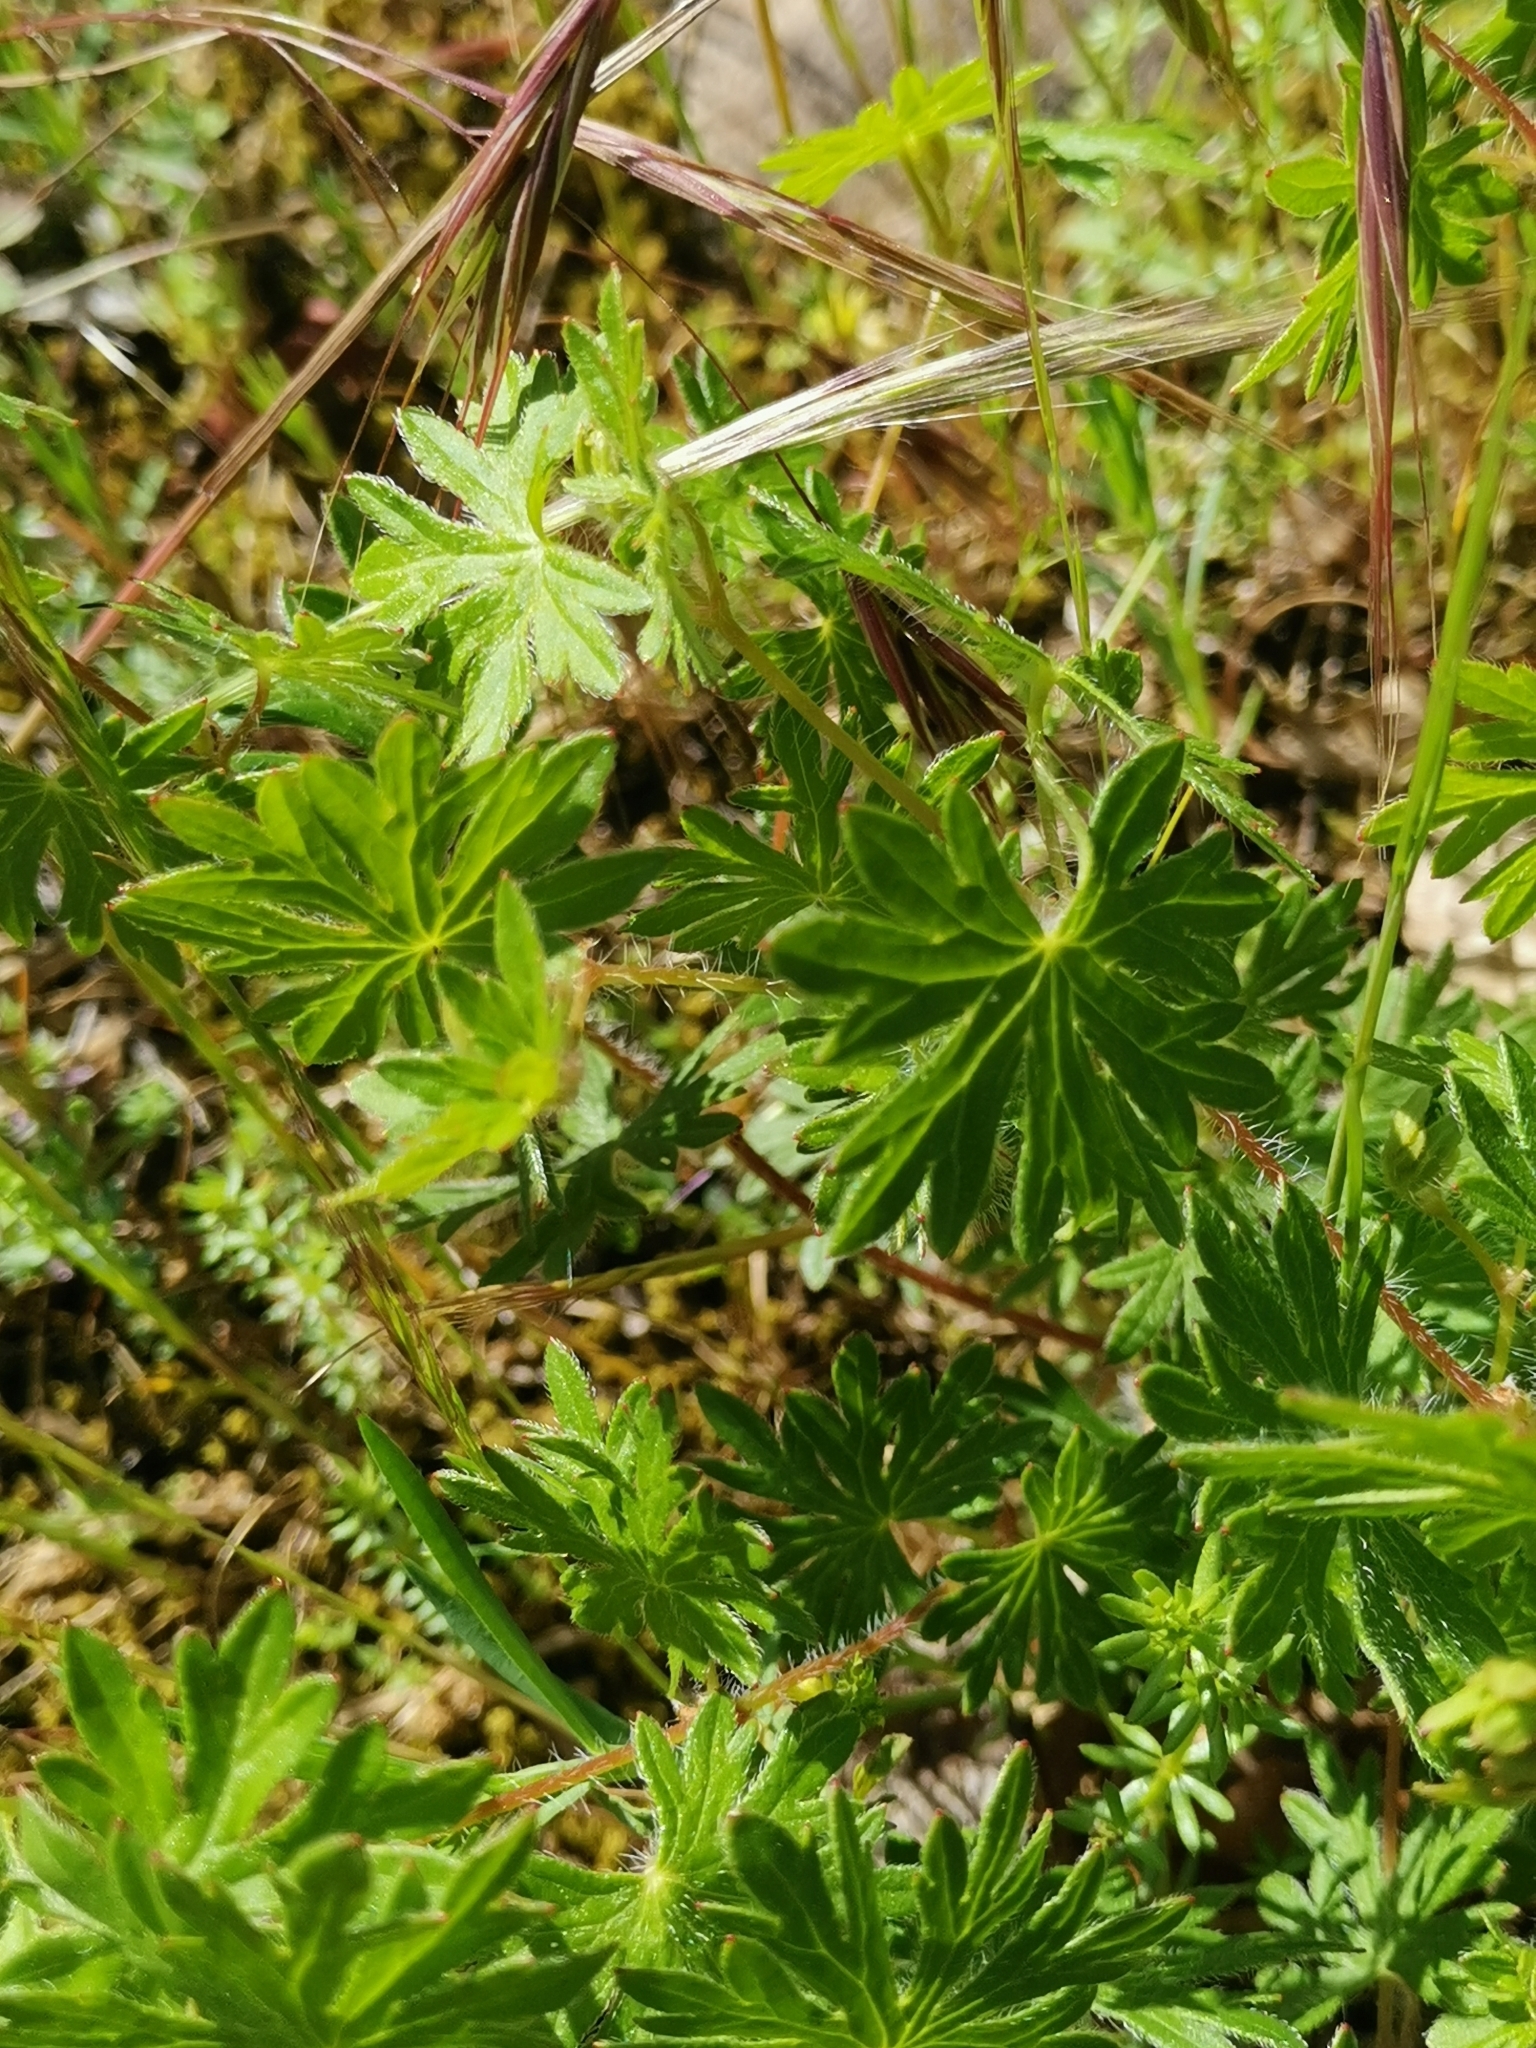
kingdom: Plantae
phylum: Tracheophyta
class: Magnoliopsida
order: Geraniales
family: Geraniaceae
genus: Geranium
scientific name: Geranium sanguineum
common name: Bloody crane's-bill
